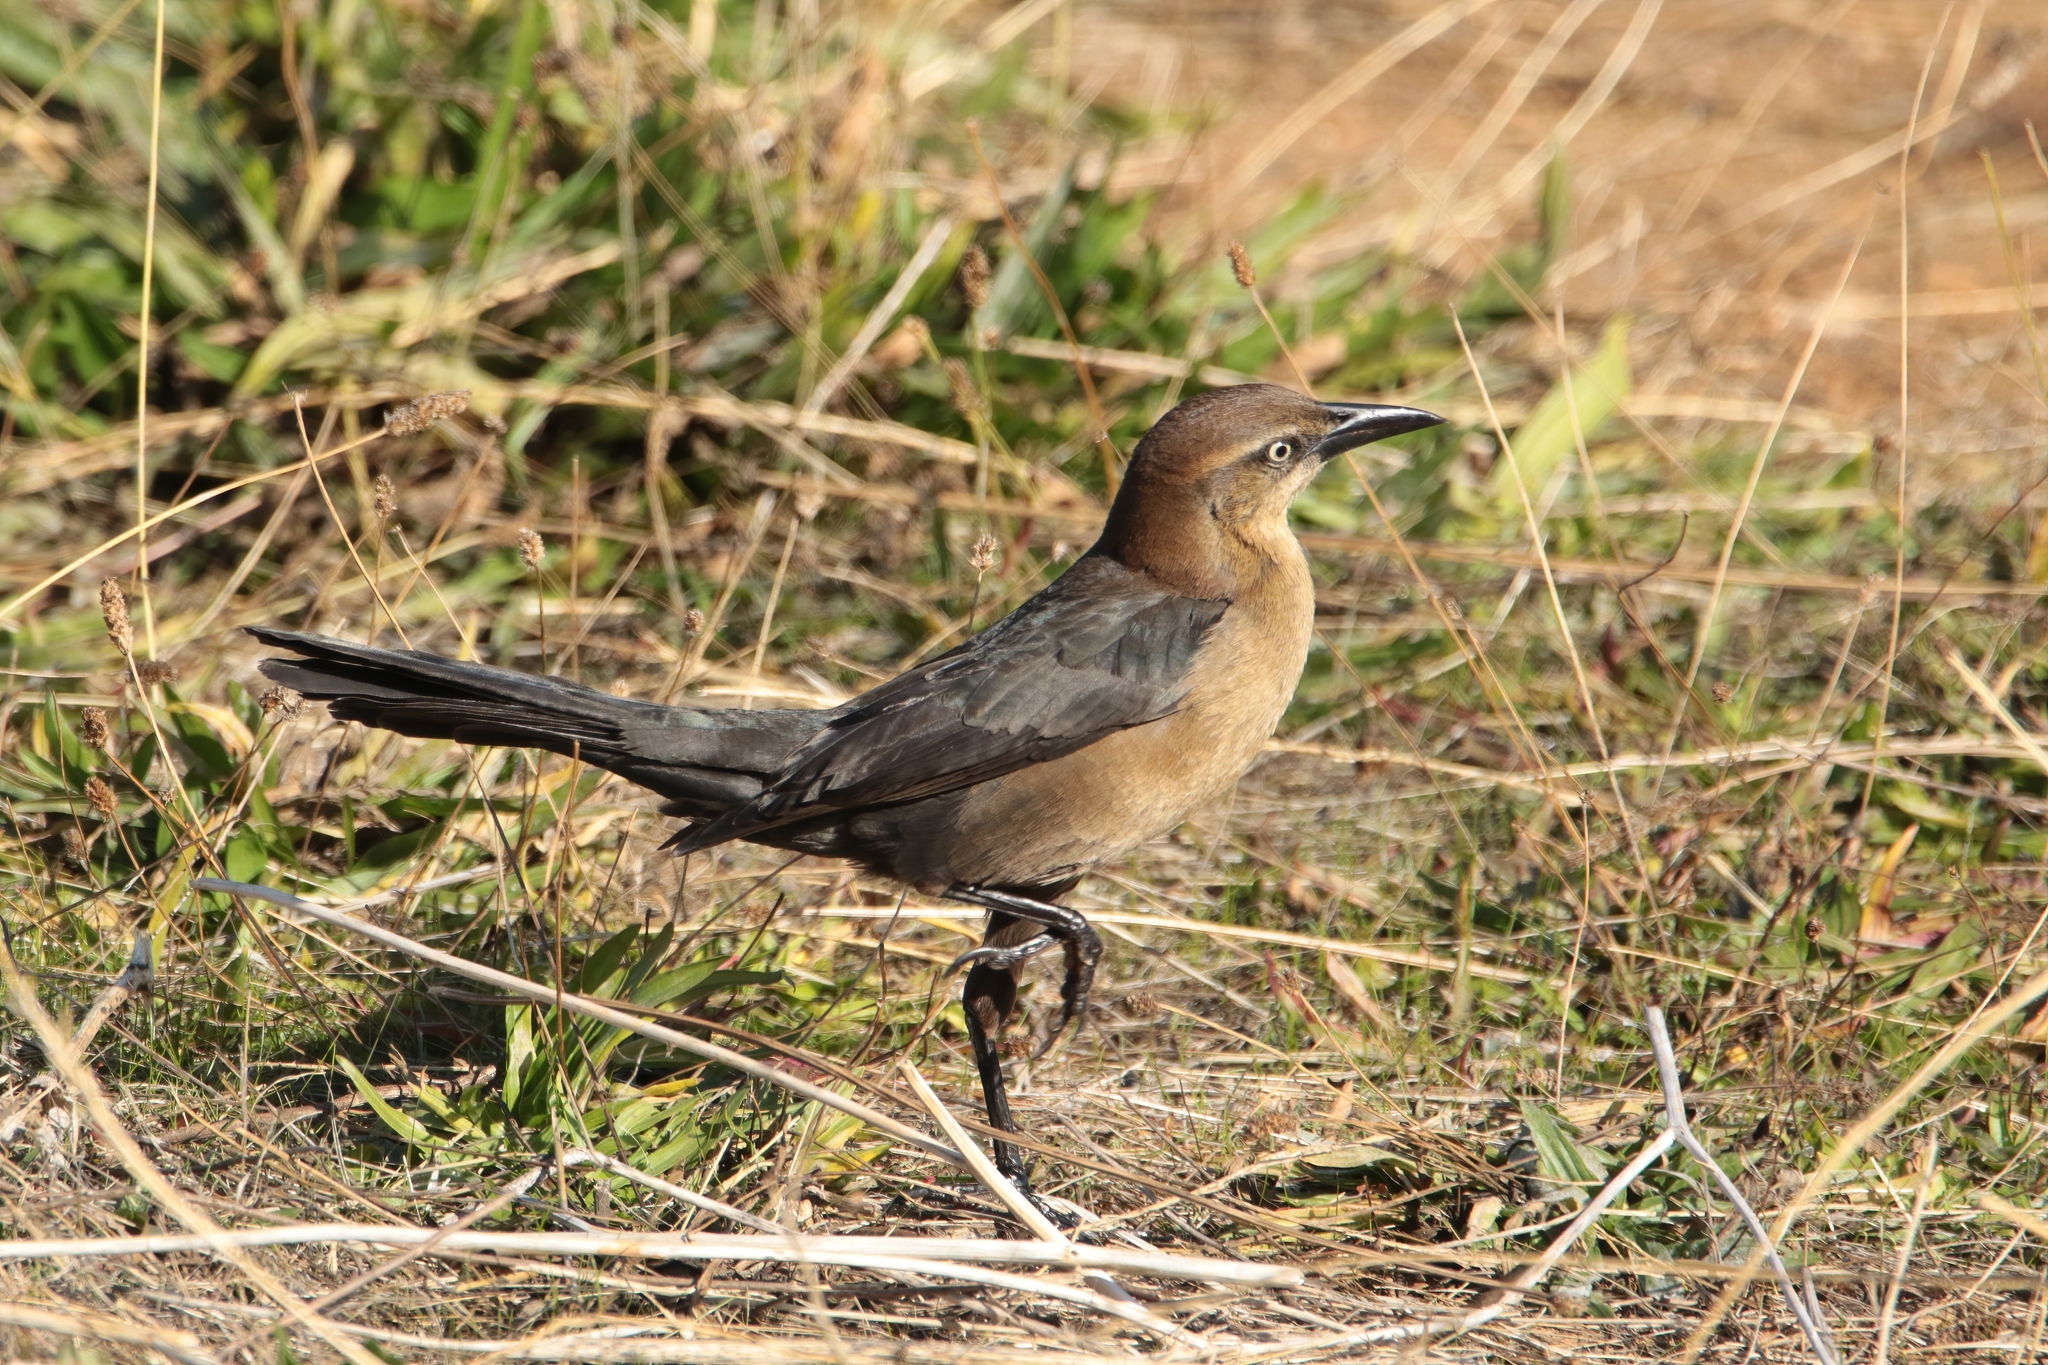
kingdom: Animalia
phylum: Chordata
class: Aves
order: Passeriformes
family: Icteridae
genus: Quiscalus
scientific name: Quiscalus mexicanus
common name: Great-tailed grackle
